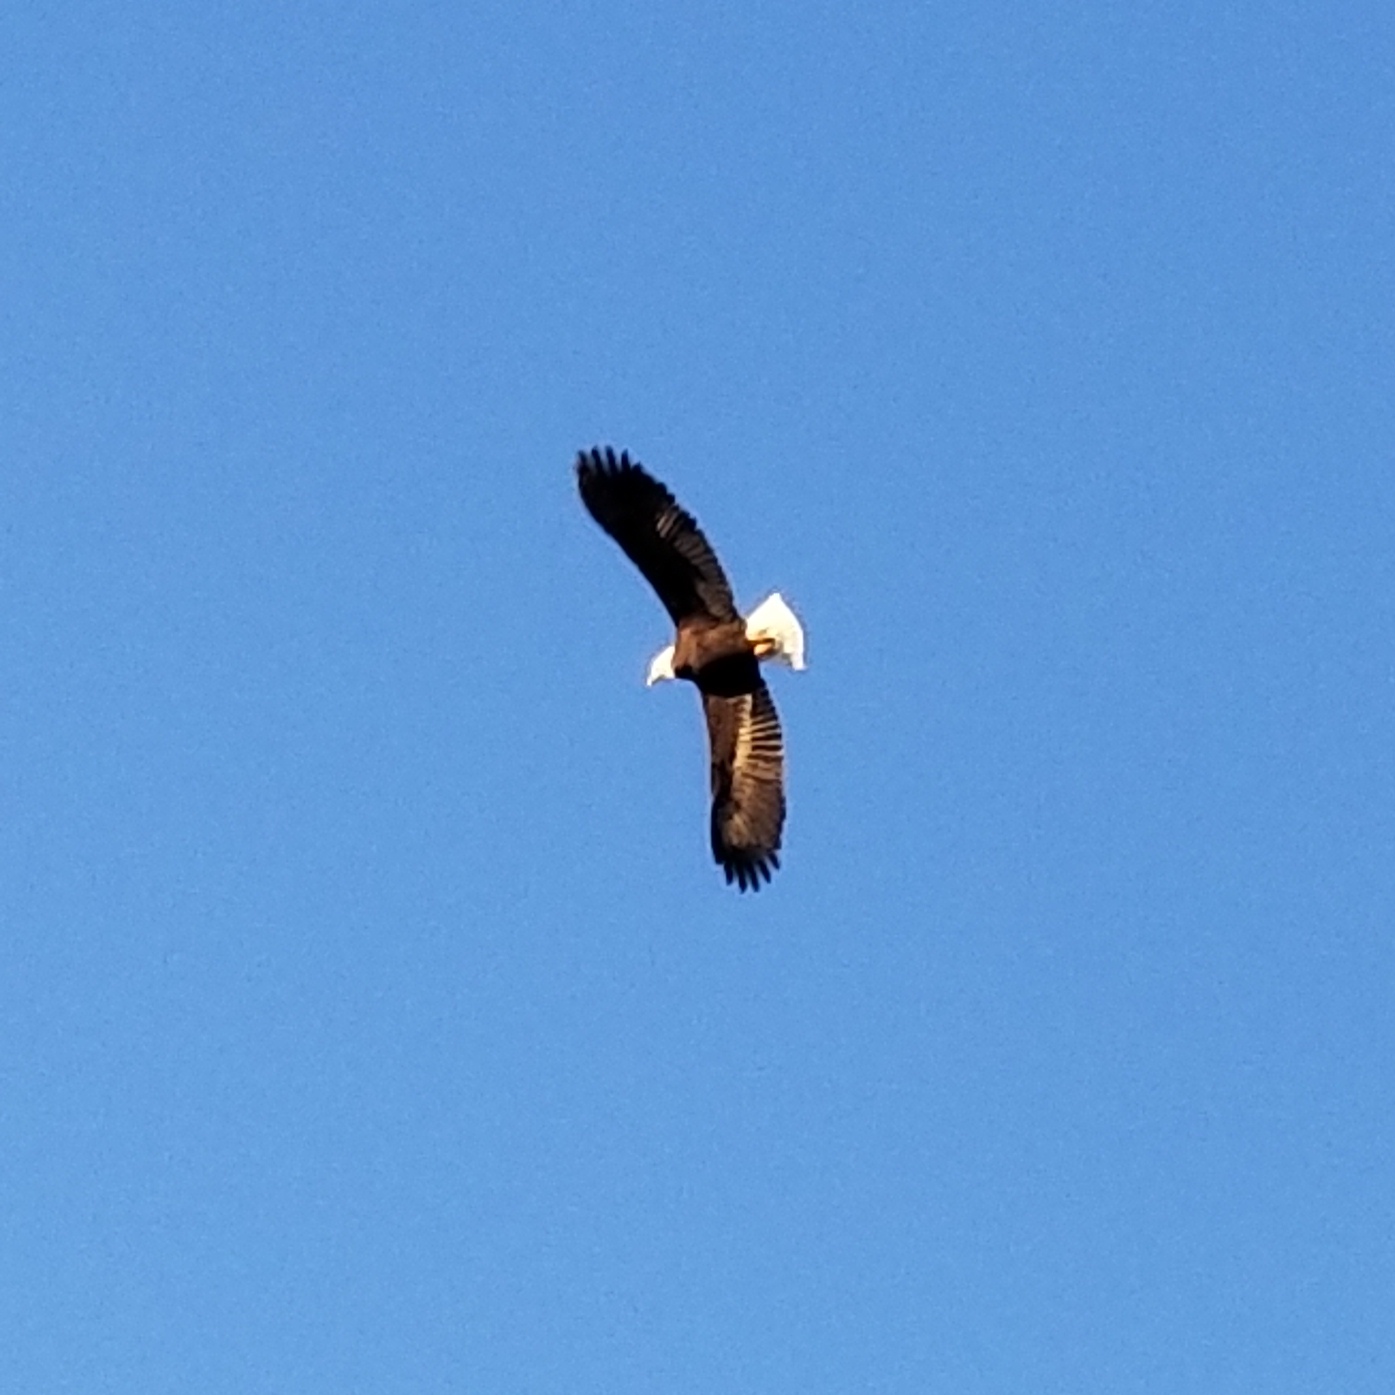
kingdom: Animalia
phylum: Chordata
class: Aves
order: Accipitriformes
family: Accipitridae
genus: Haliaeetus
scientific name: Haliaeetus leucocephalus
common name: Bald eagle
